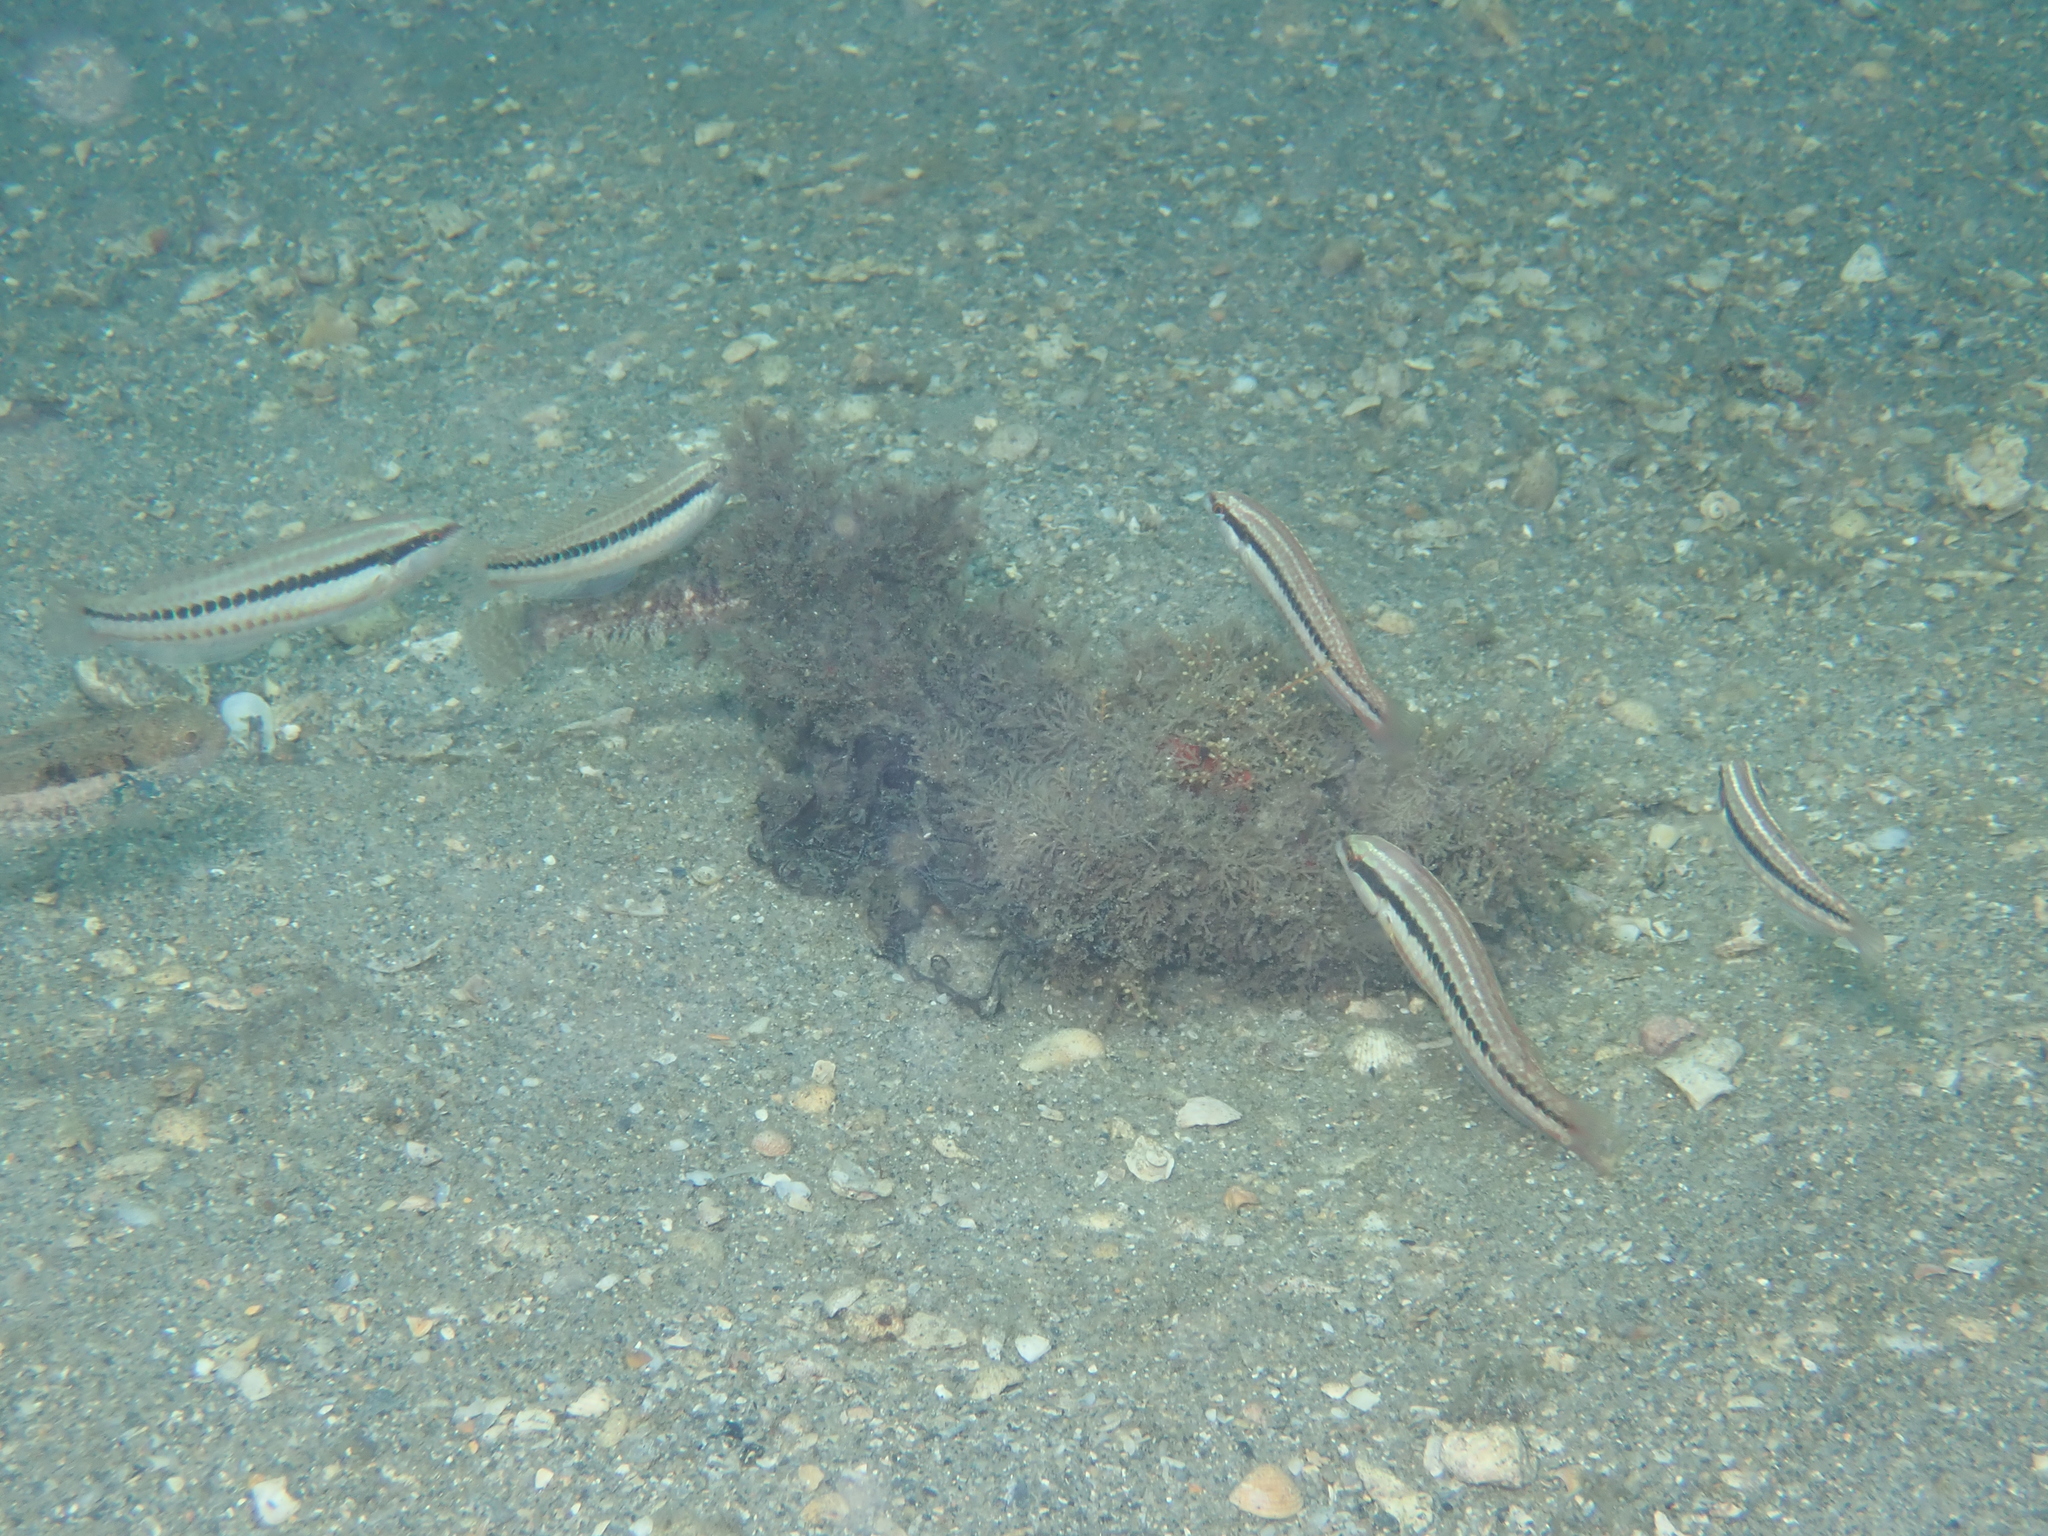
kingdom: Animalia
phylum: Chordata
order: Perciformes
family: Labridae
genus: Halichoeres
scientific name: Halichoeres bivittatus
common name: Slippery dick
